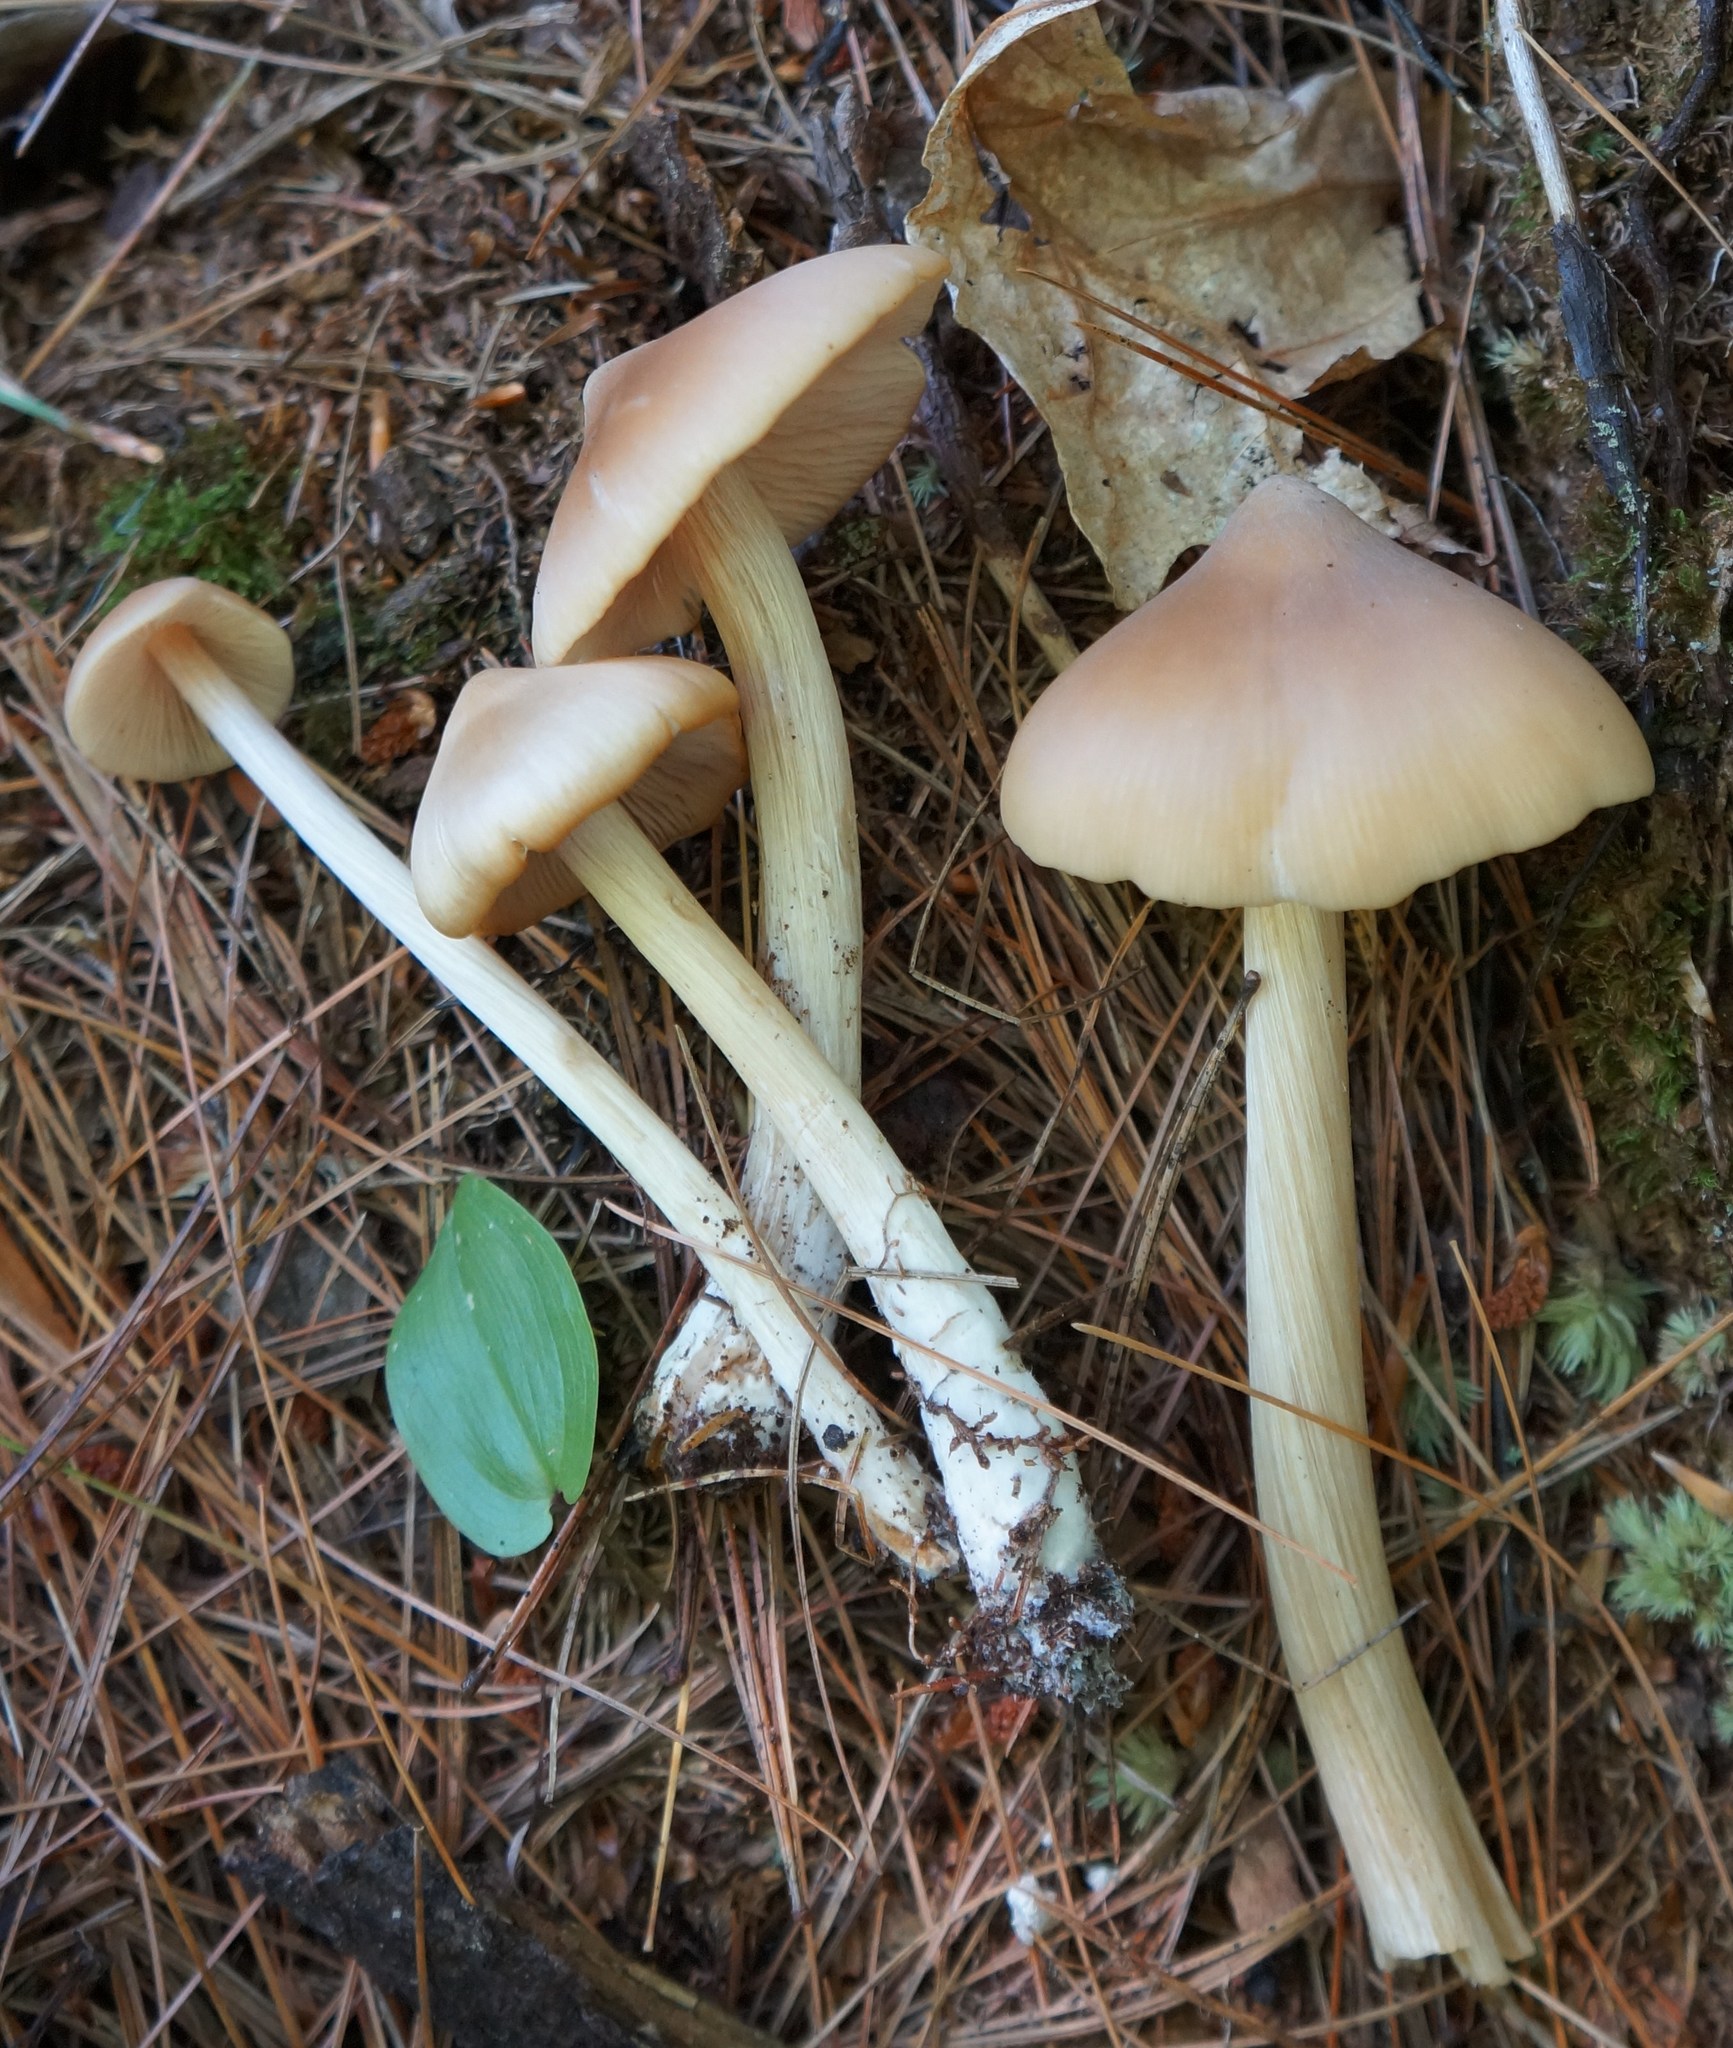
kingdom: Fungi
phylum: Basidiomycota
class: Agaricomycetes
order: Agaricales
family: Entolomataceae
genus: Entoloma
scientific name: Entoloma strictius
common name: Straight-stalked entoloma
